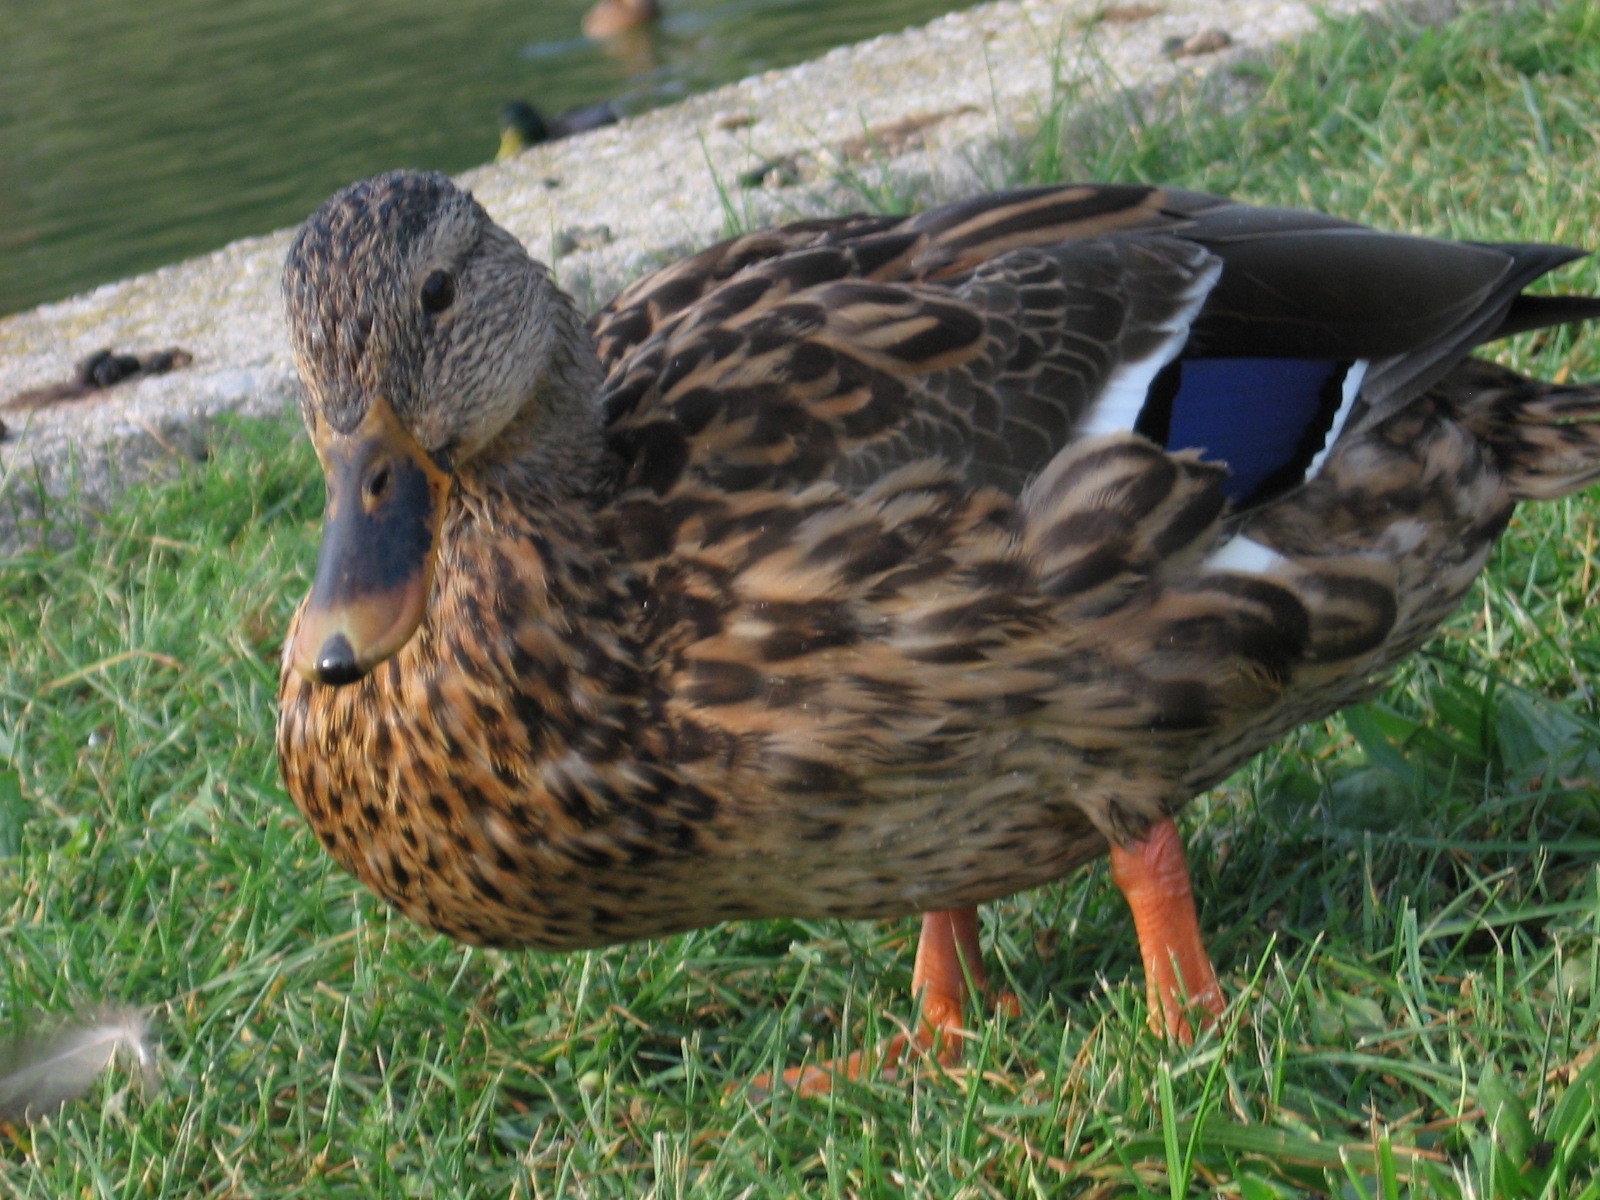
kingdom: Animalia
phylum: Chordata
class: Aves
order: Anseriformes
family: Anatidae
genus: Anas
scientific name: Anas platyrhynchos
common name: Mallard
